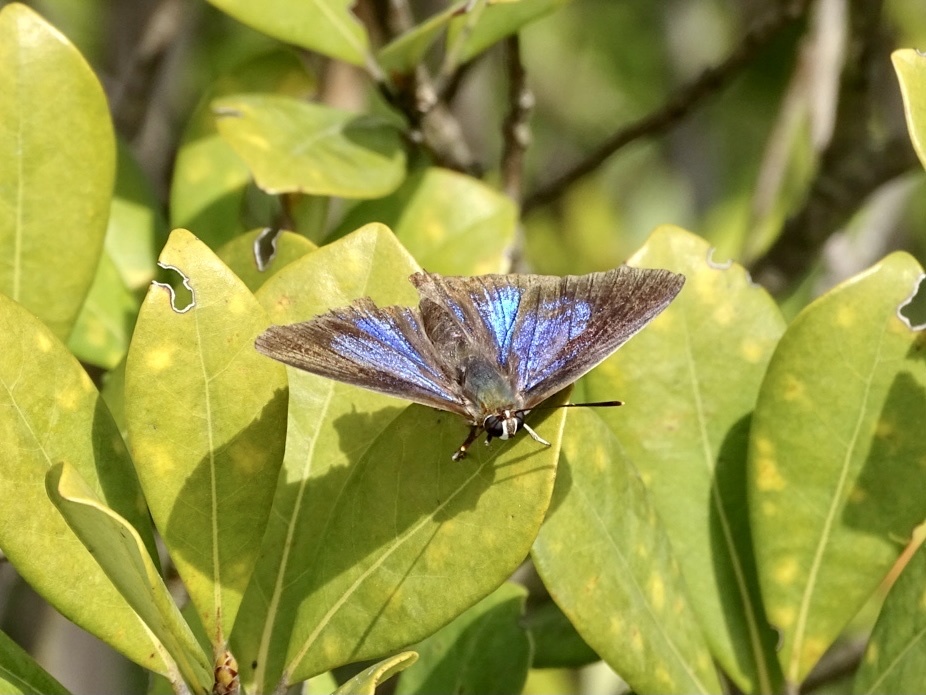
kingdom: Animalia
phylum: Arthropoda
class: Insecta
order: Lepidoptera
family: Lycaenidae
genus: Iraota
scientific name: Iraota timoleon
